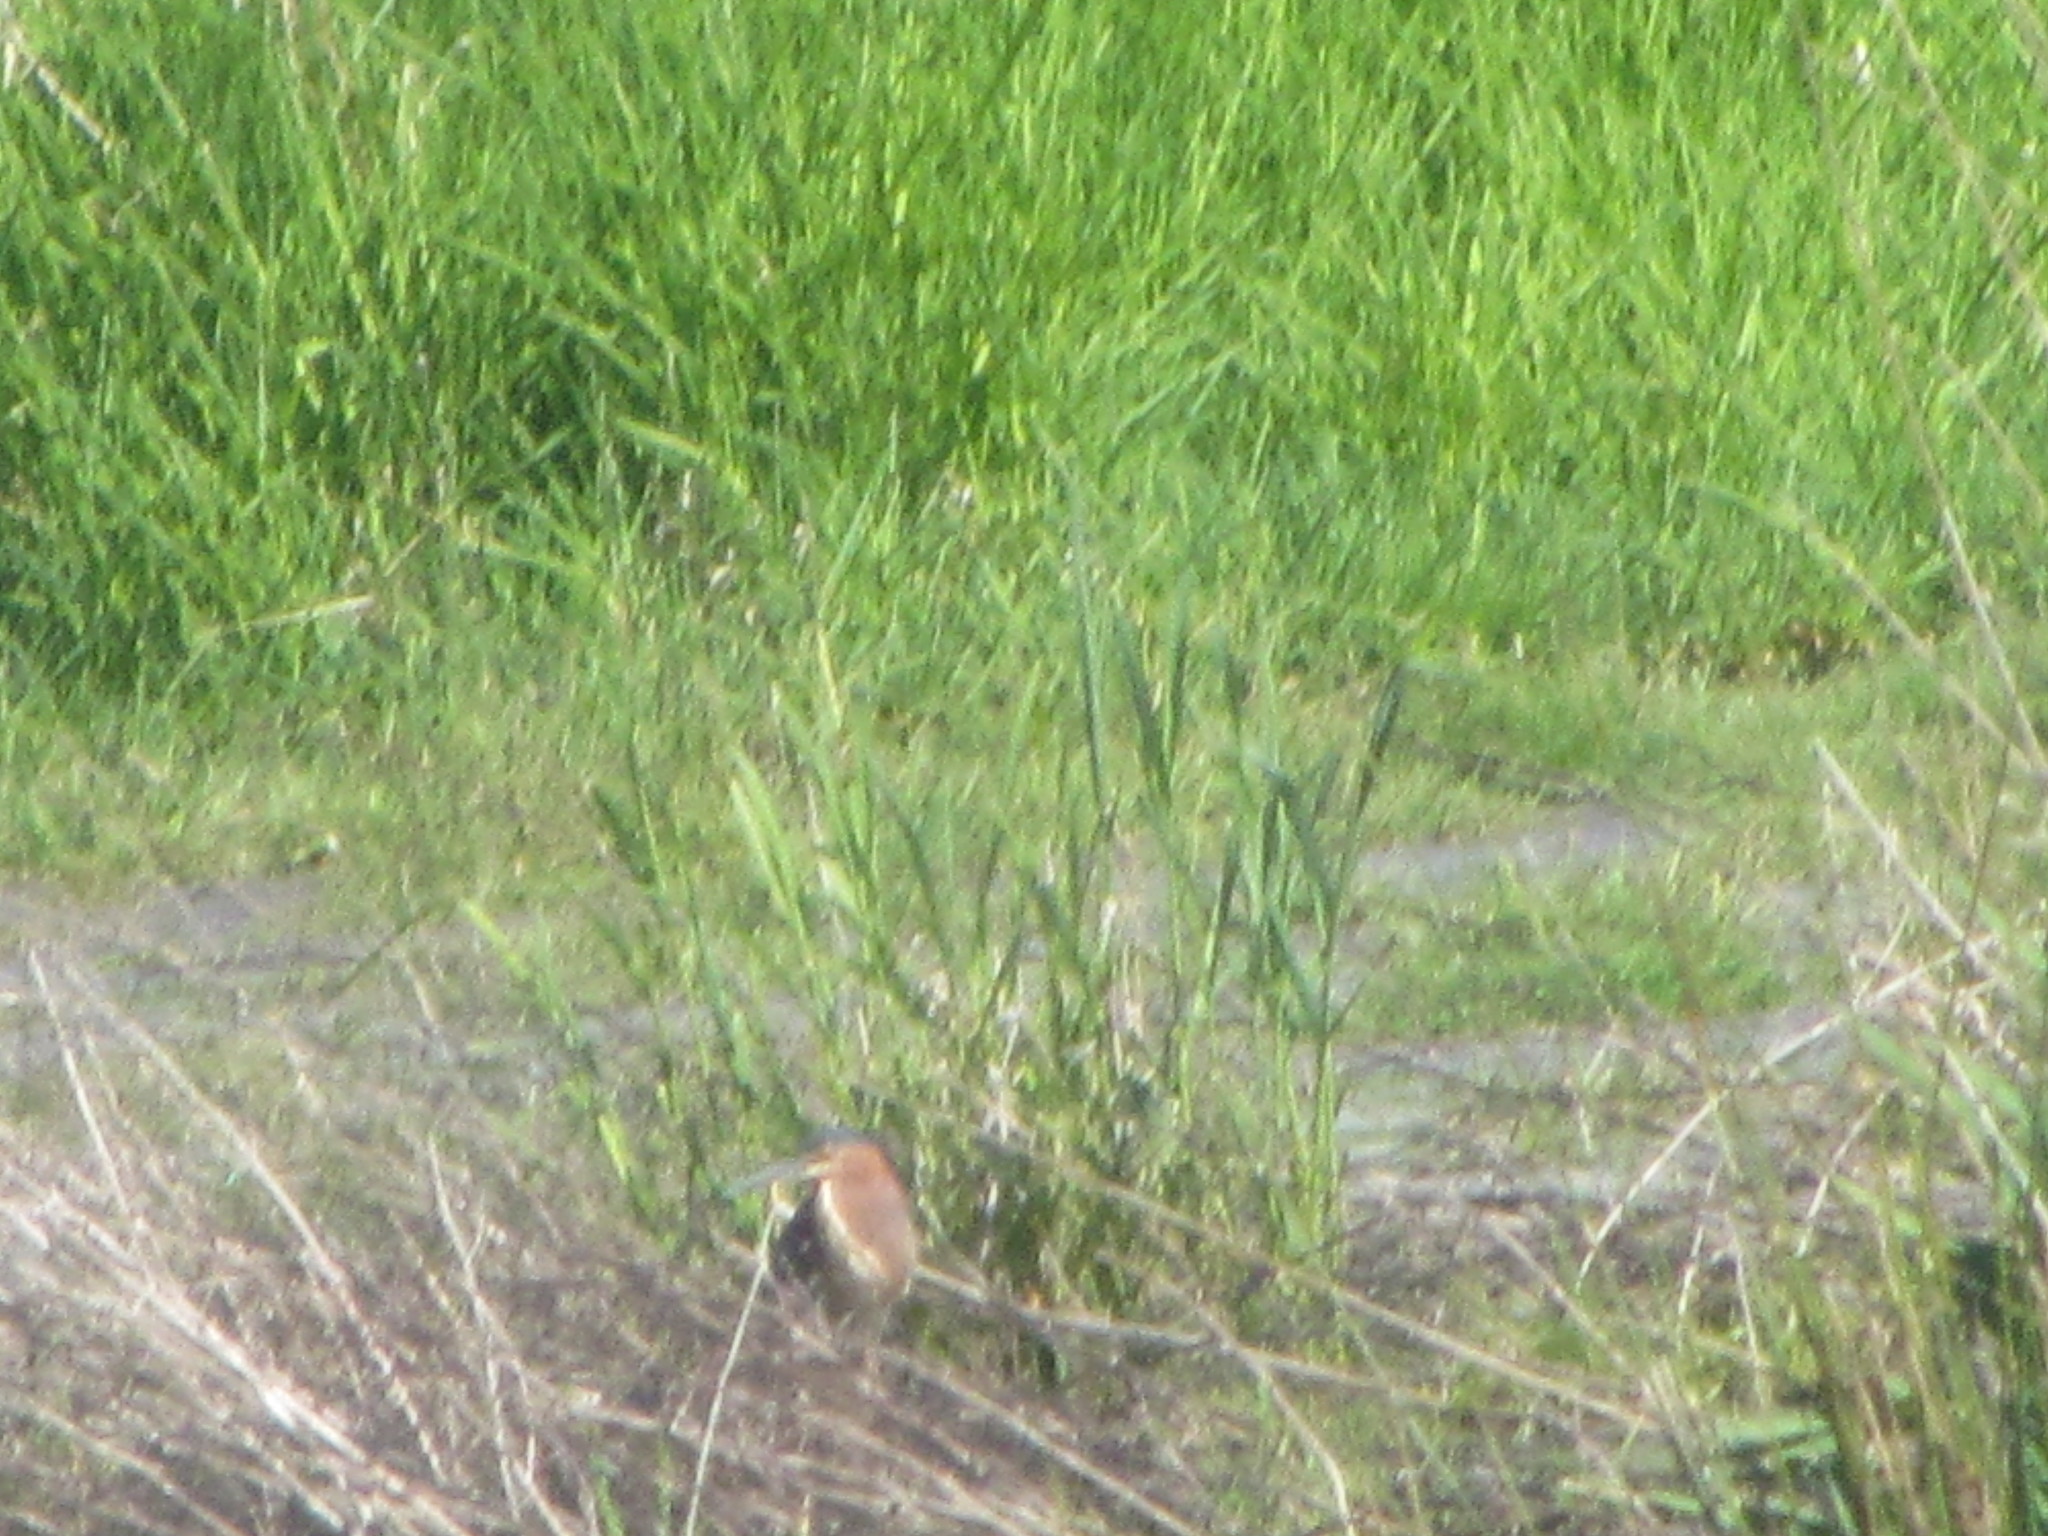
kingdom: Animalia
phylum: Chordata
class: Aves
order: Pelecaniformes
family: Ardeidae
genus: Butorides
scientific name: Butorides virescens
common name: Green heron
